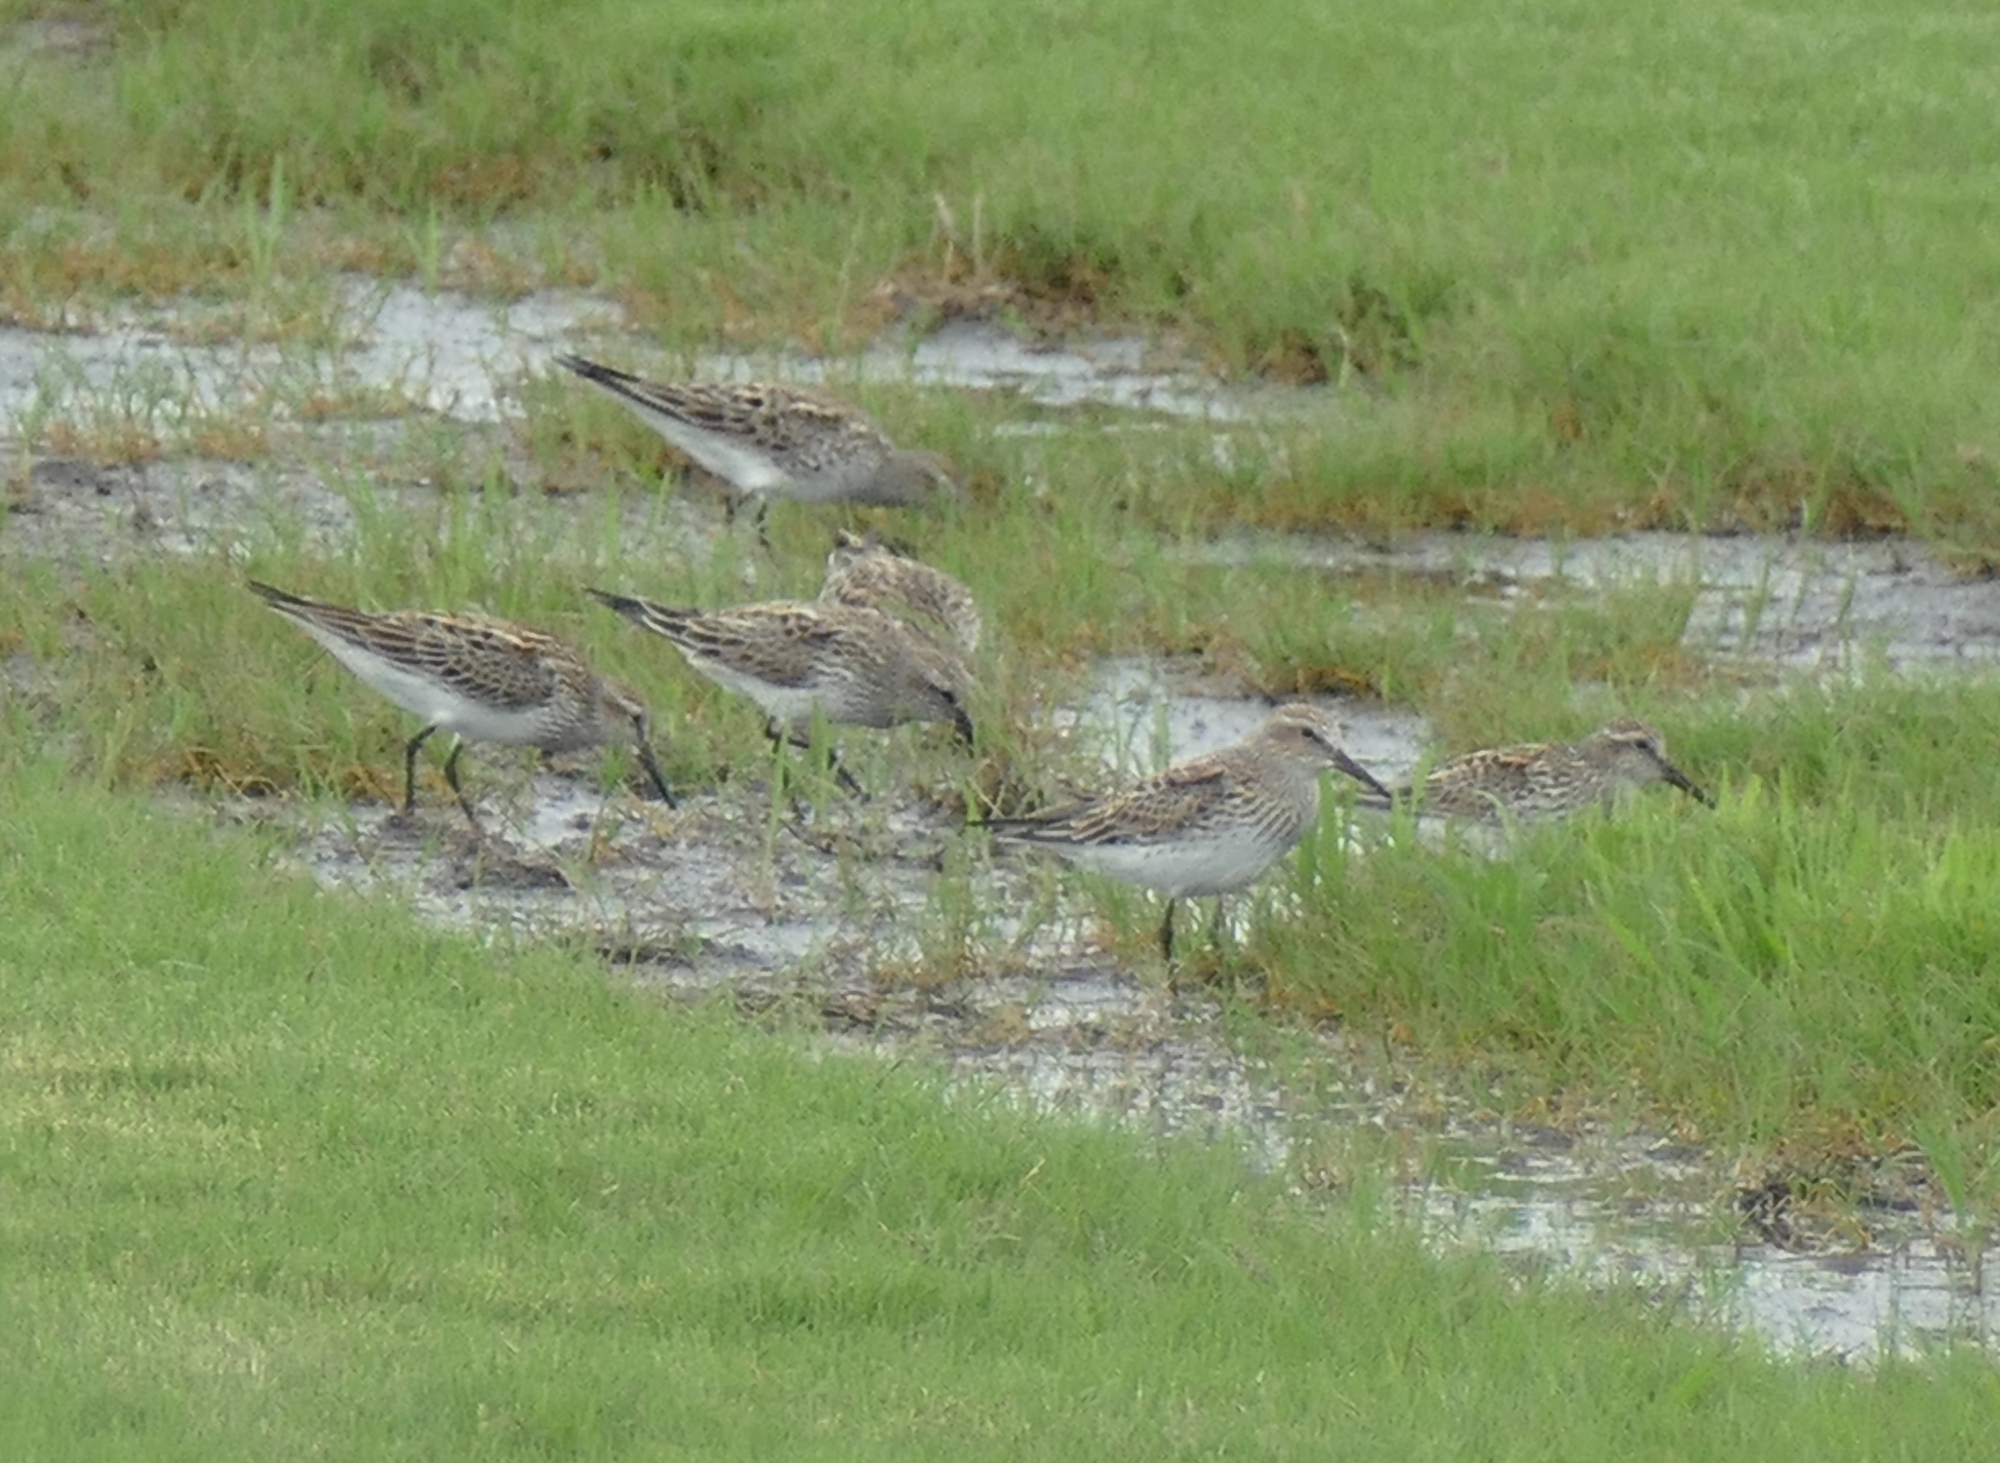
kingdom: Animalia
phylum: Chordata
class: Aves
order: Charadriiformes
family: Scolopacidae
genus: Calidris
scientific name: Calidris fuscicollis
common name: White-rumped sandpiper
